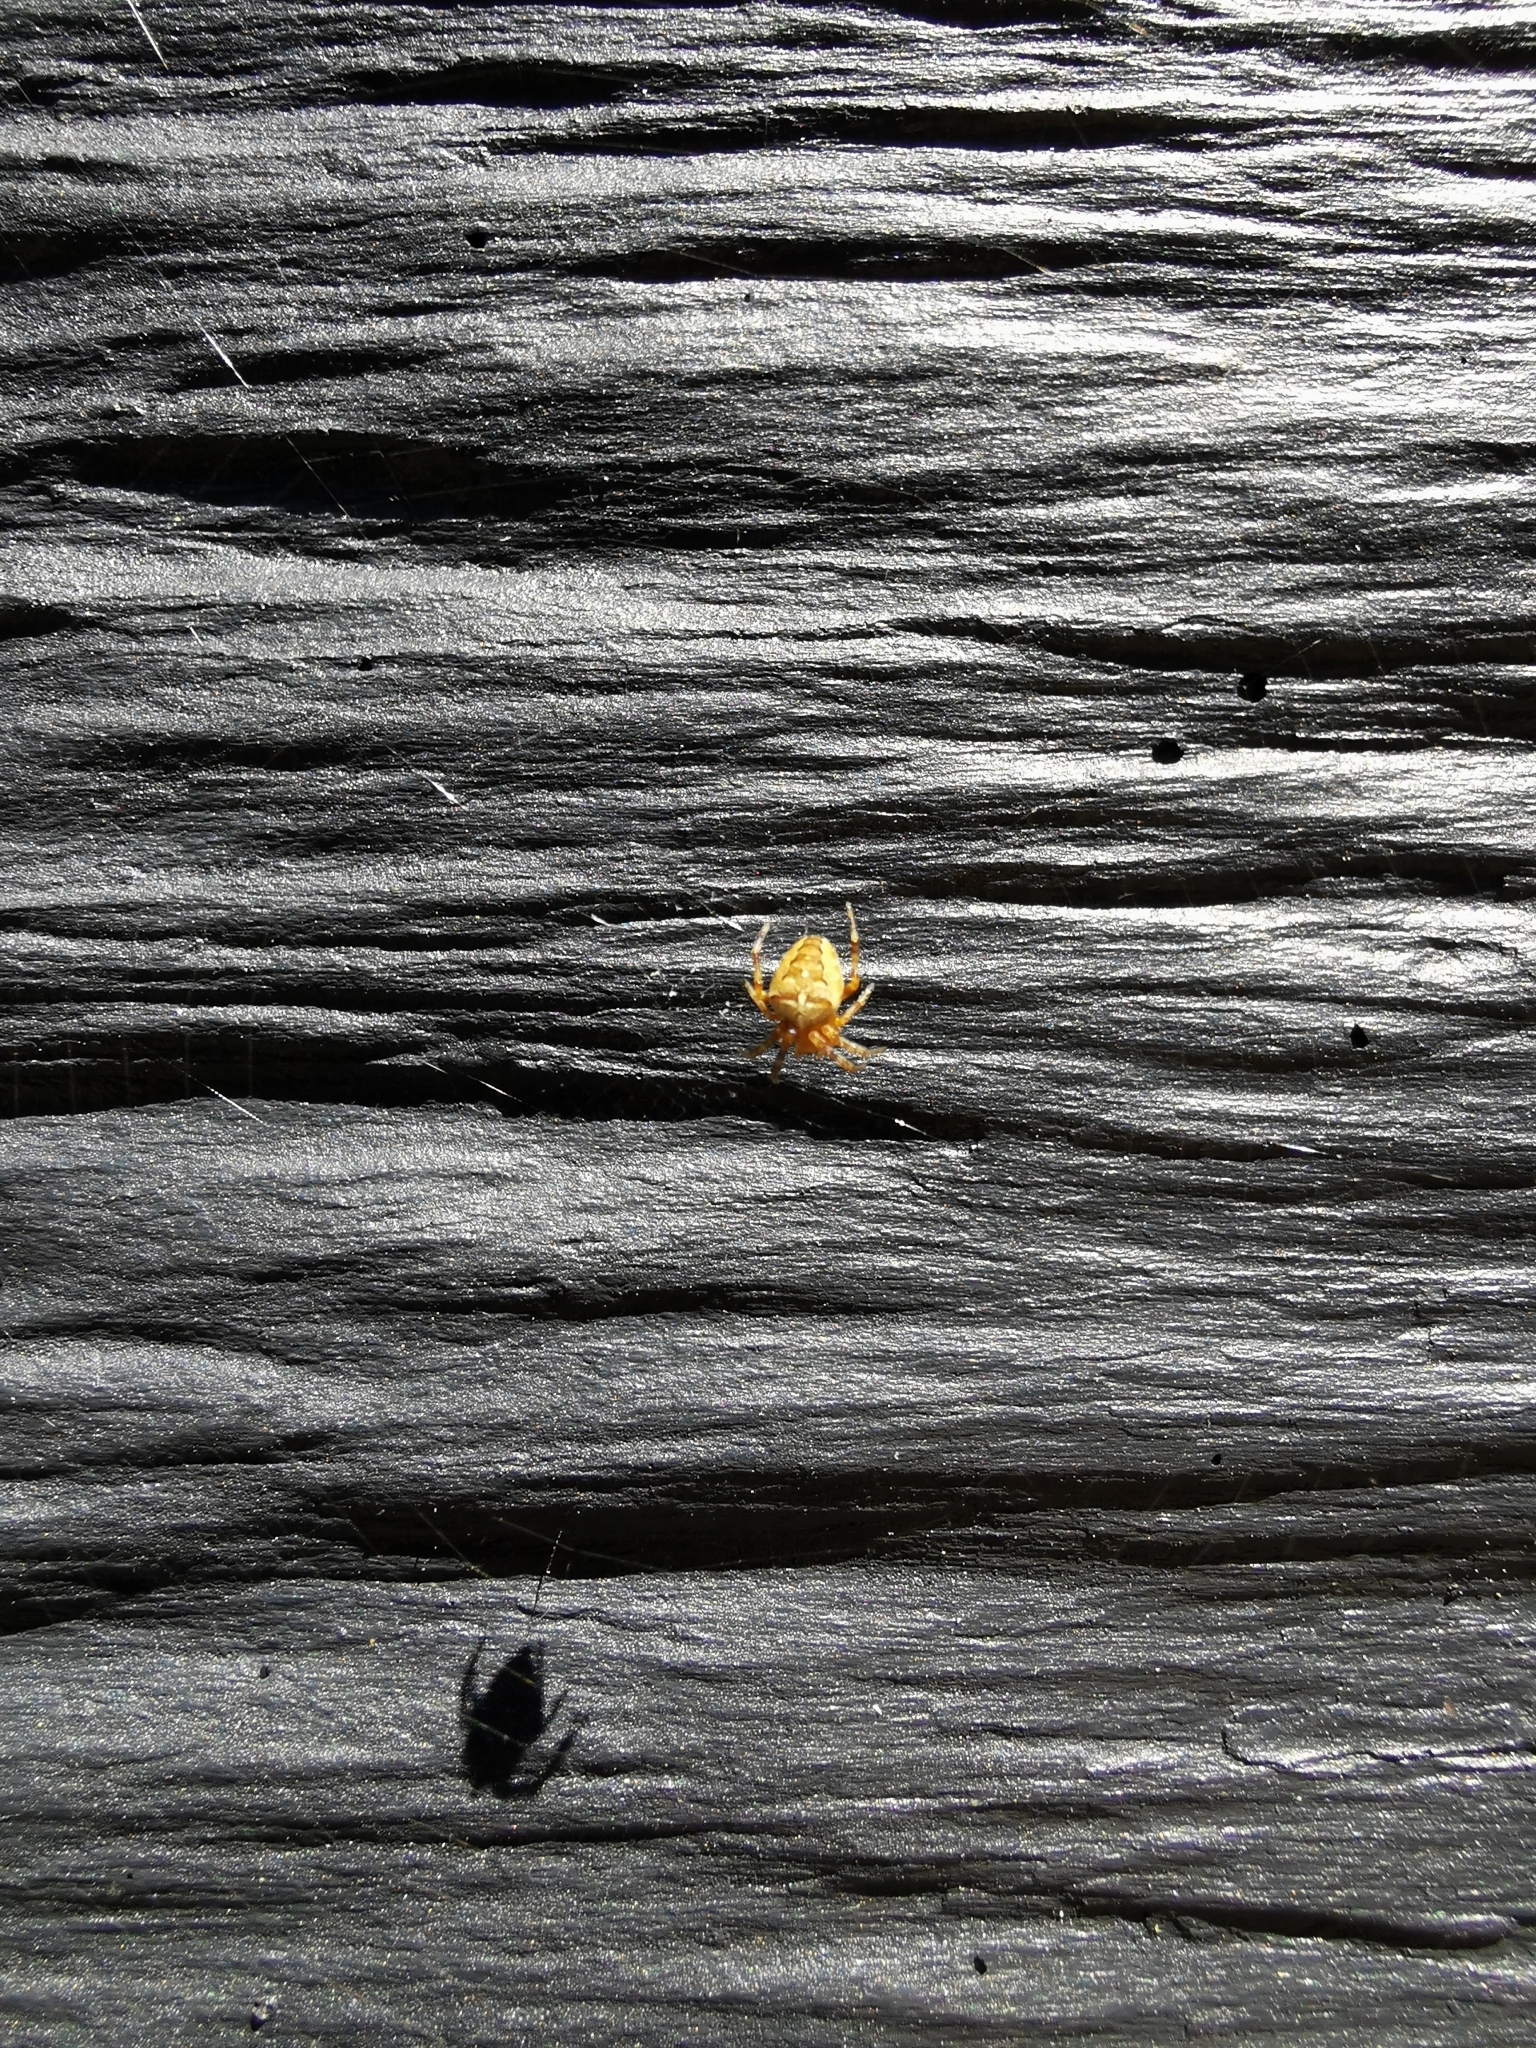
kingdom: Animalia
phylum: Arthropoda
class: Arachnida
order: Araneae
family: Araneidae
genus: Araneus
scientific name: Araneus diadematus
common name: Cross orbweaver
